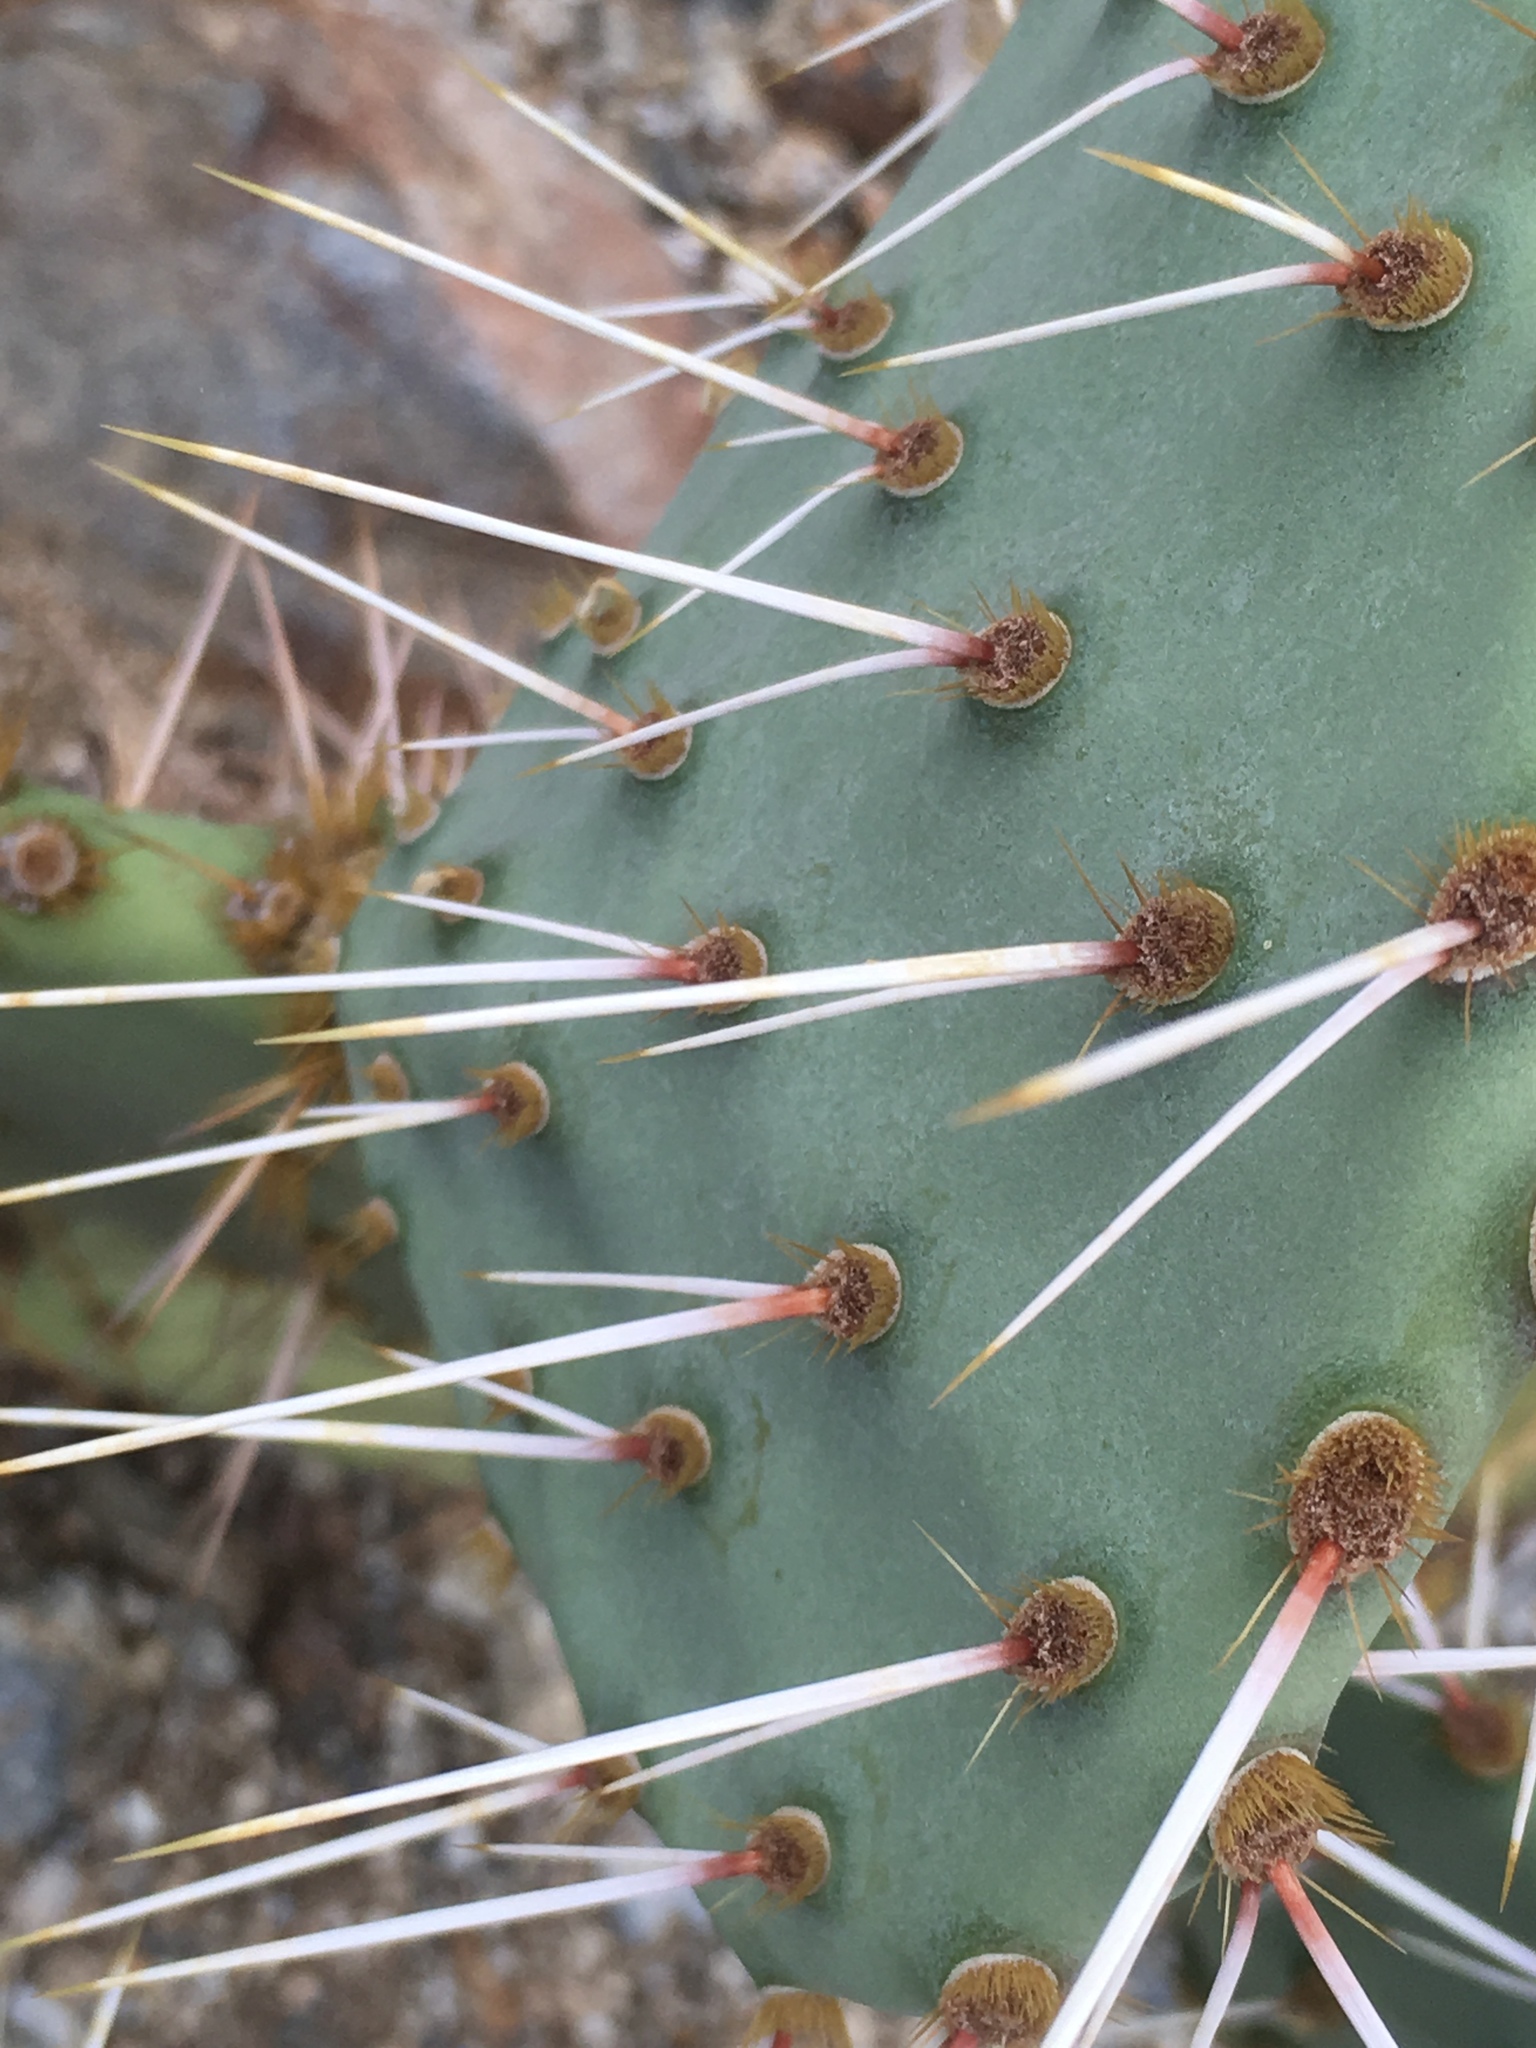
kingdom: Plantae
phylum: Tracheophyta
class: Magnoliopsida
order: Caryophyllales
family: Cactaceae
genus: Opuntia
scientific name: Opuntia phaeacantha
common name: New mexico prickly-pear
